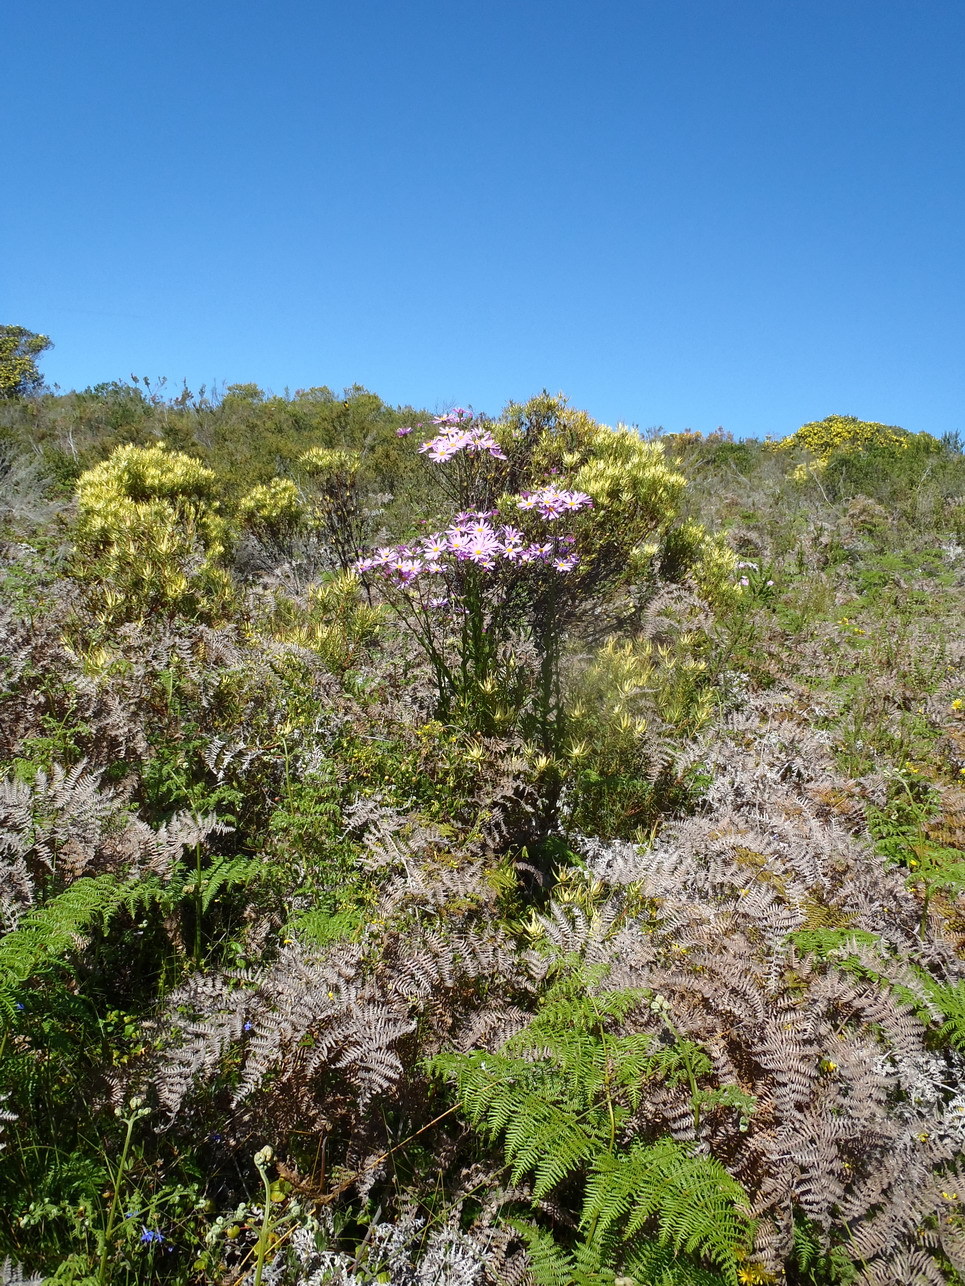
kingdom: Plantae
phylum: Tracheophyta
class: Magnoliopsida
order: Asterales
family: Asteraceae
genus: Senecio
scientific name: Senecio glastifolius
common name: Woad-leaved ragwort
